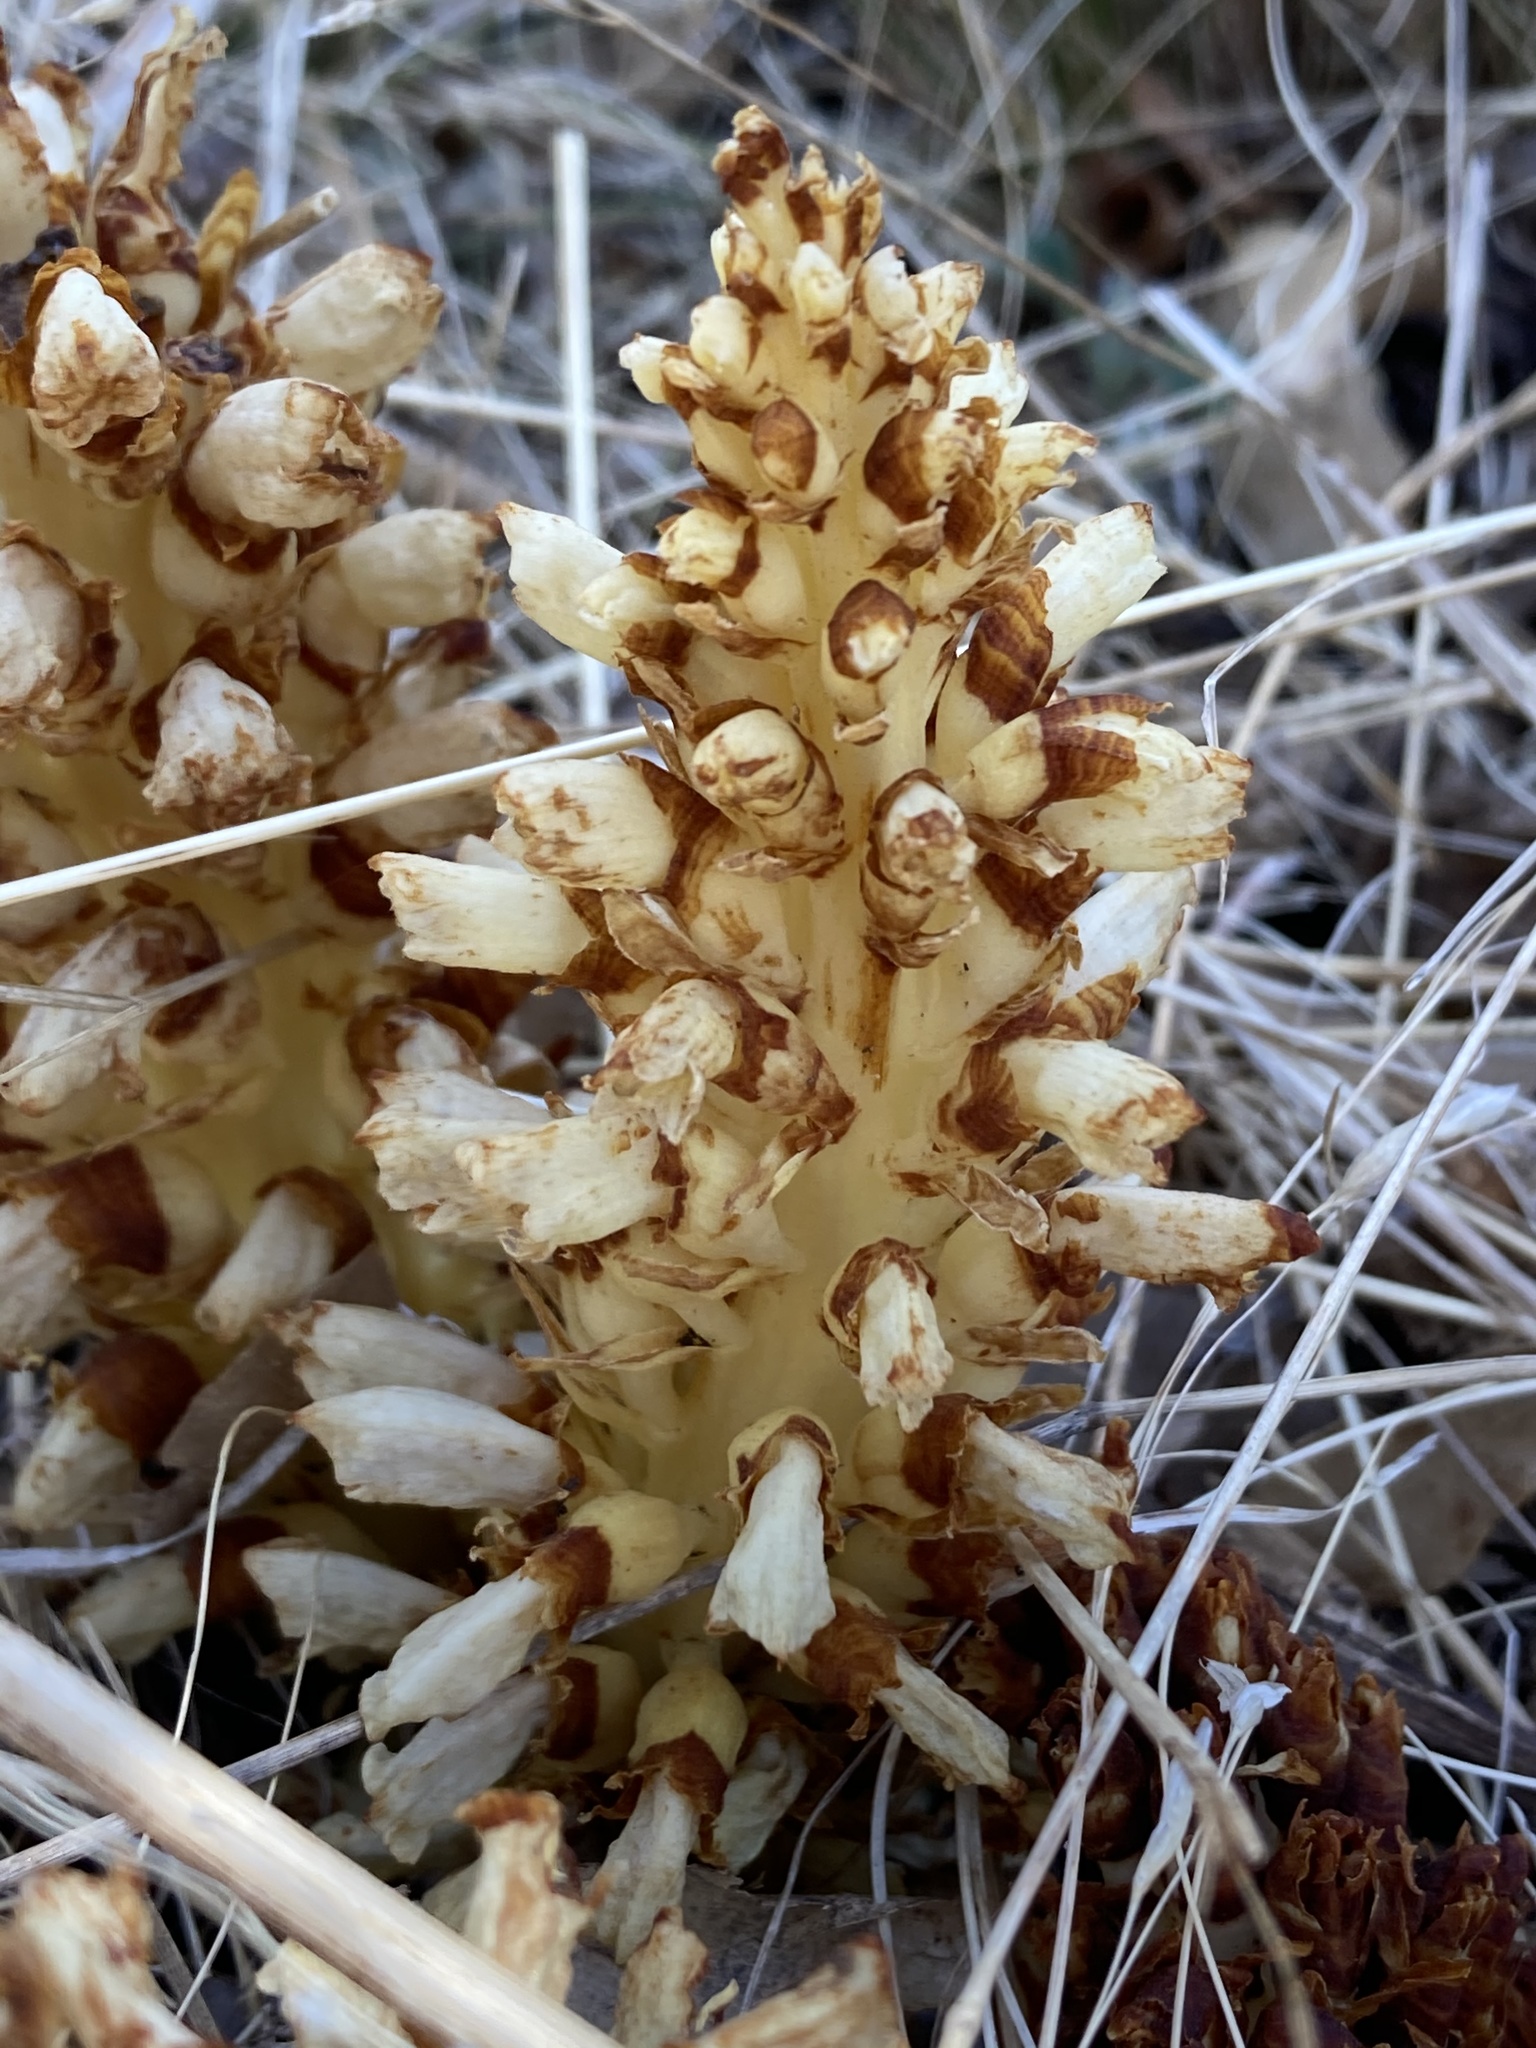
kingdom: Plantae
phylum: Tracheophyta
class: Magnoliopsida
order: Lamiales
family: Orobanchaceae
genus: Conopholis
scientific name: Conopholis alpina
